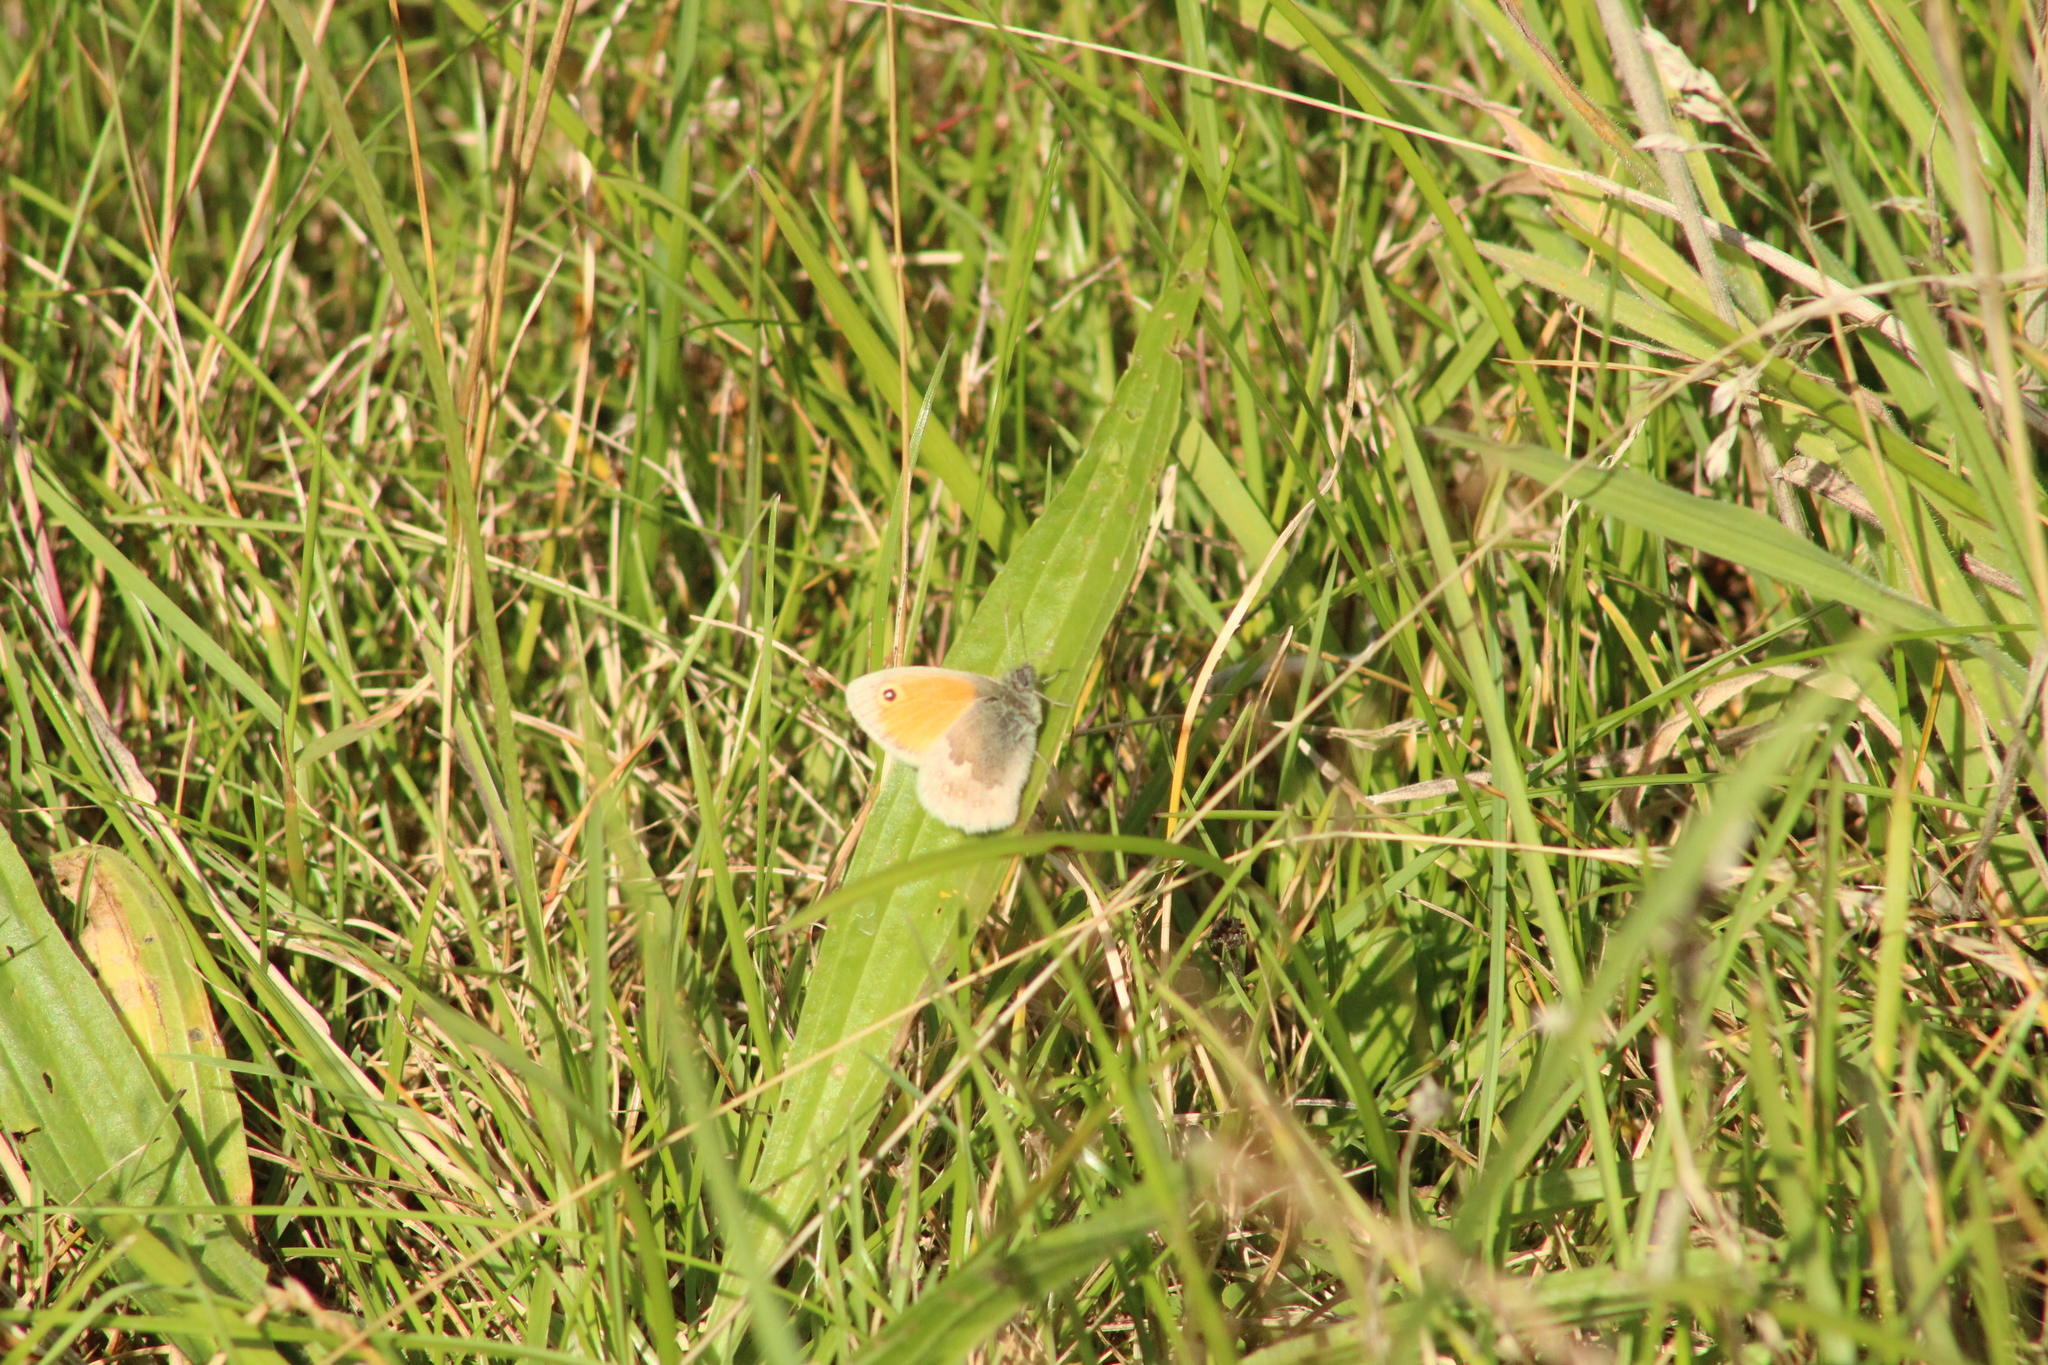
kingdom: Animalia
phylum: Arthropoda
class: Insecta
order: Lepidoptera
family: Nymphalidae
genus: Coenonympha
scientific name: Coenonympha pamphilus
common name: Small heath
